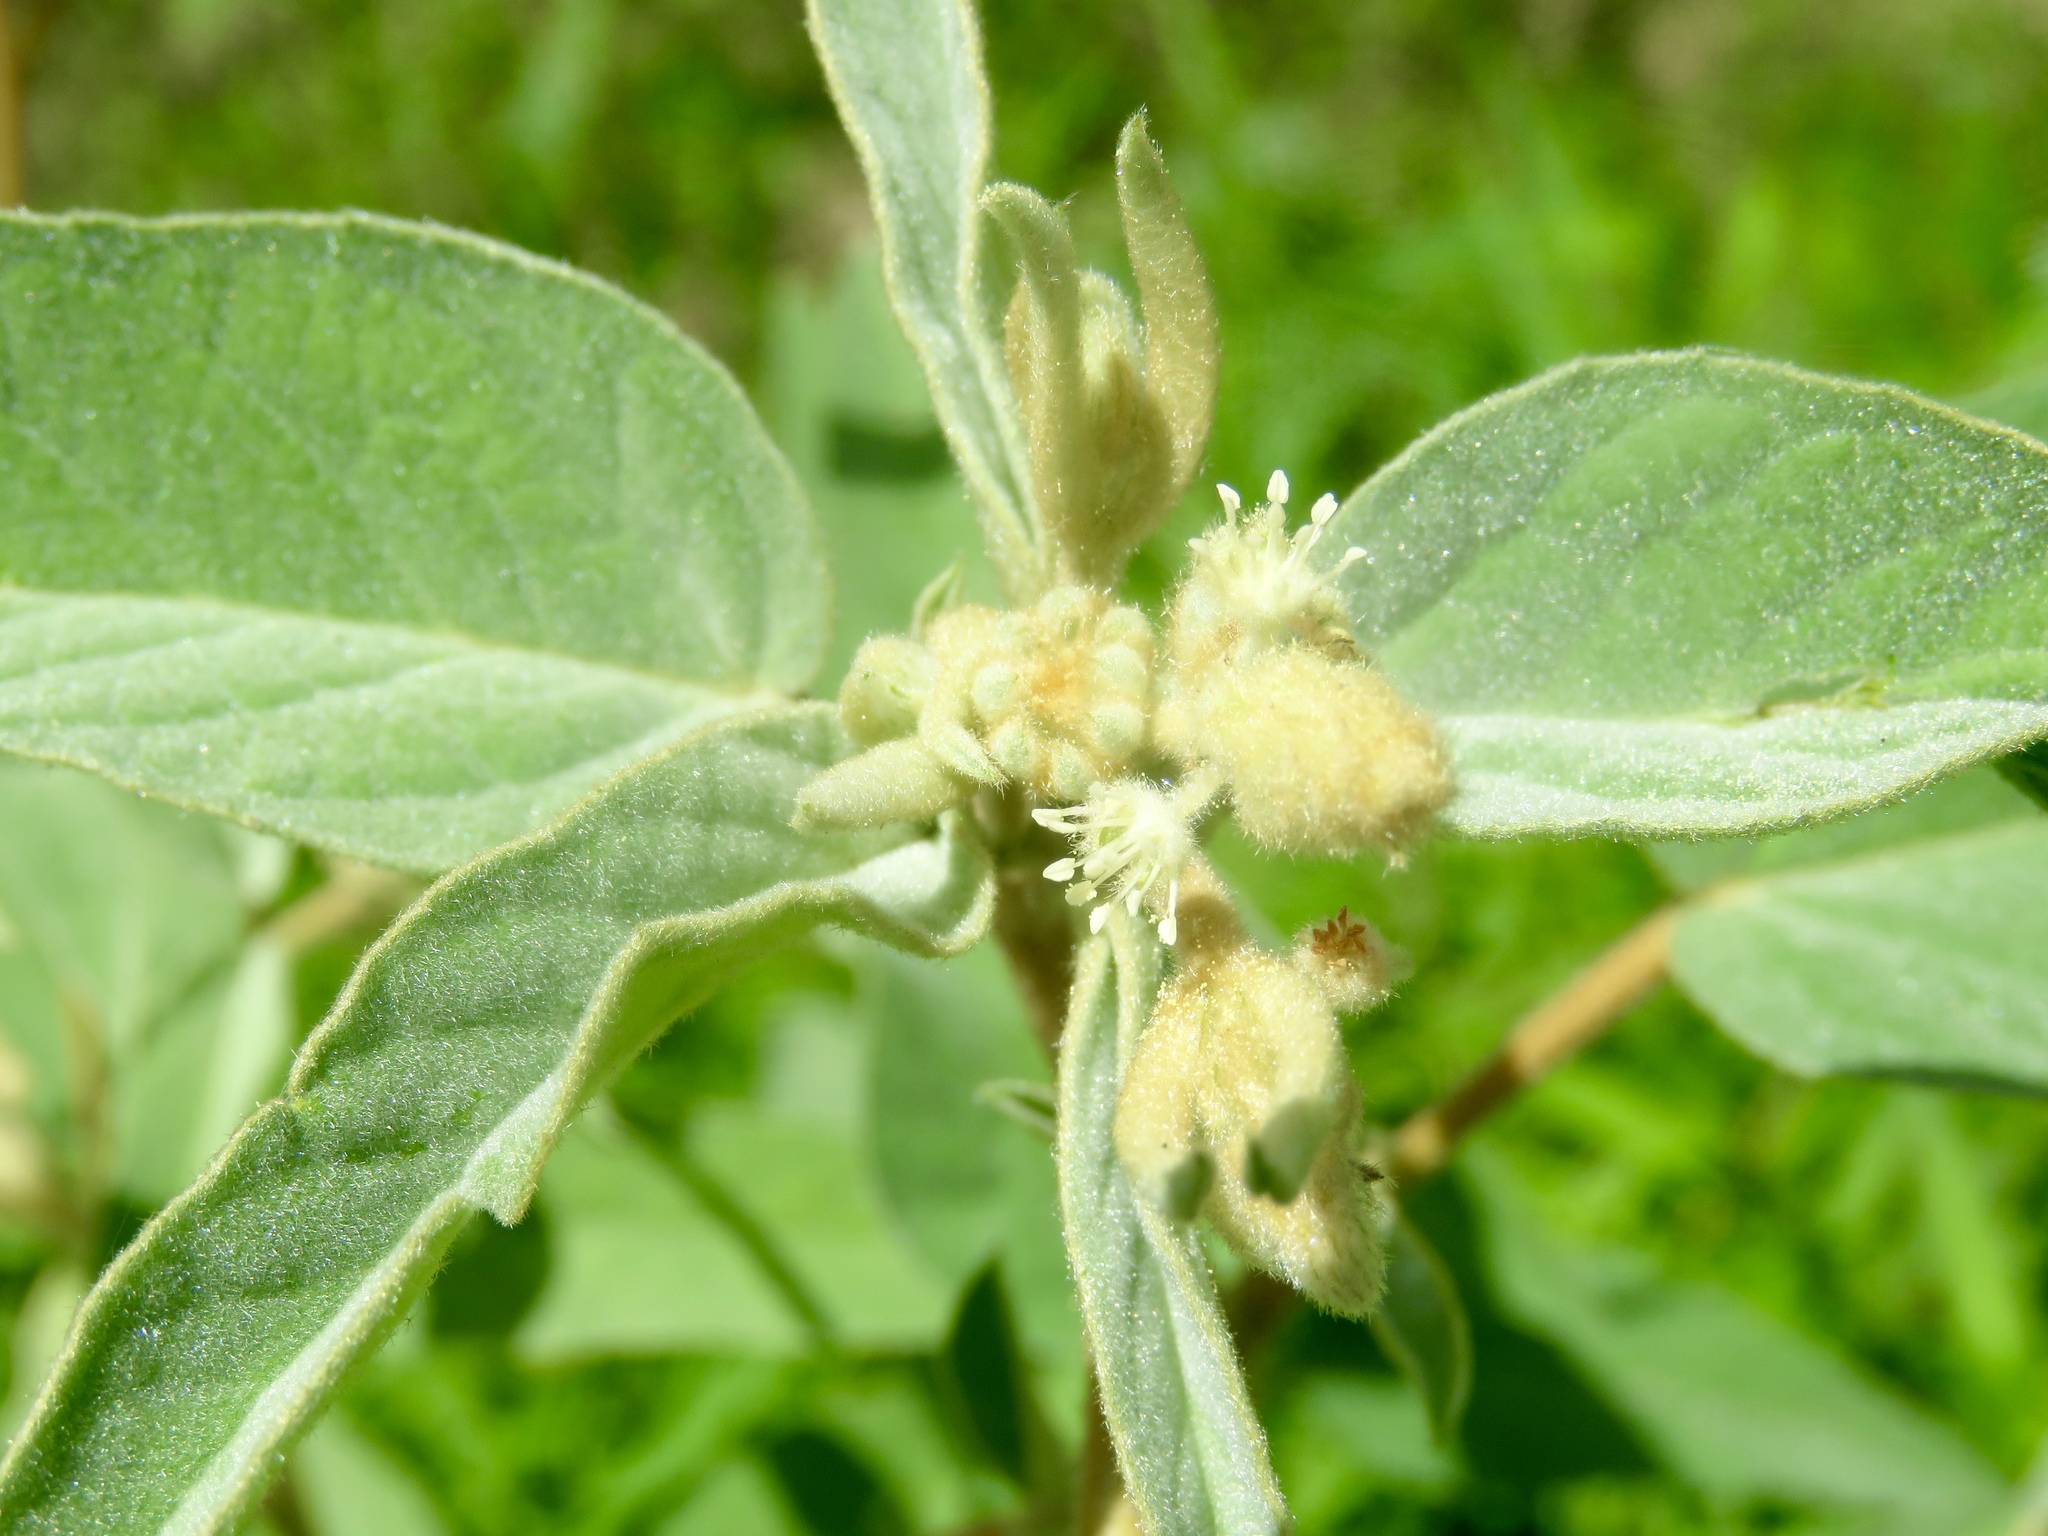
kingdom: Plantae
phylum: Tracheophyta
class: Magnoliopsida
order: Malpighiales
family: Euphorbiaceae
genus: Croton
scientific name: Croton lindheimeri
